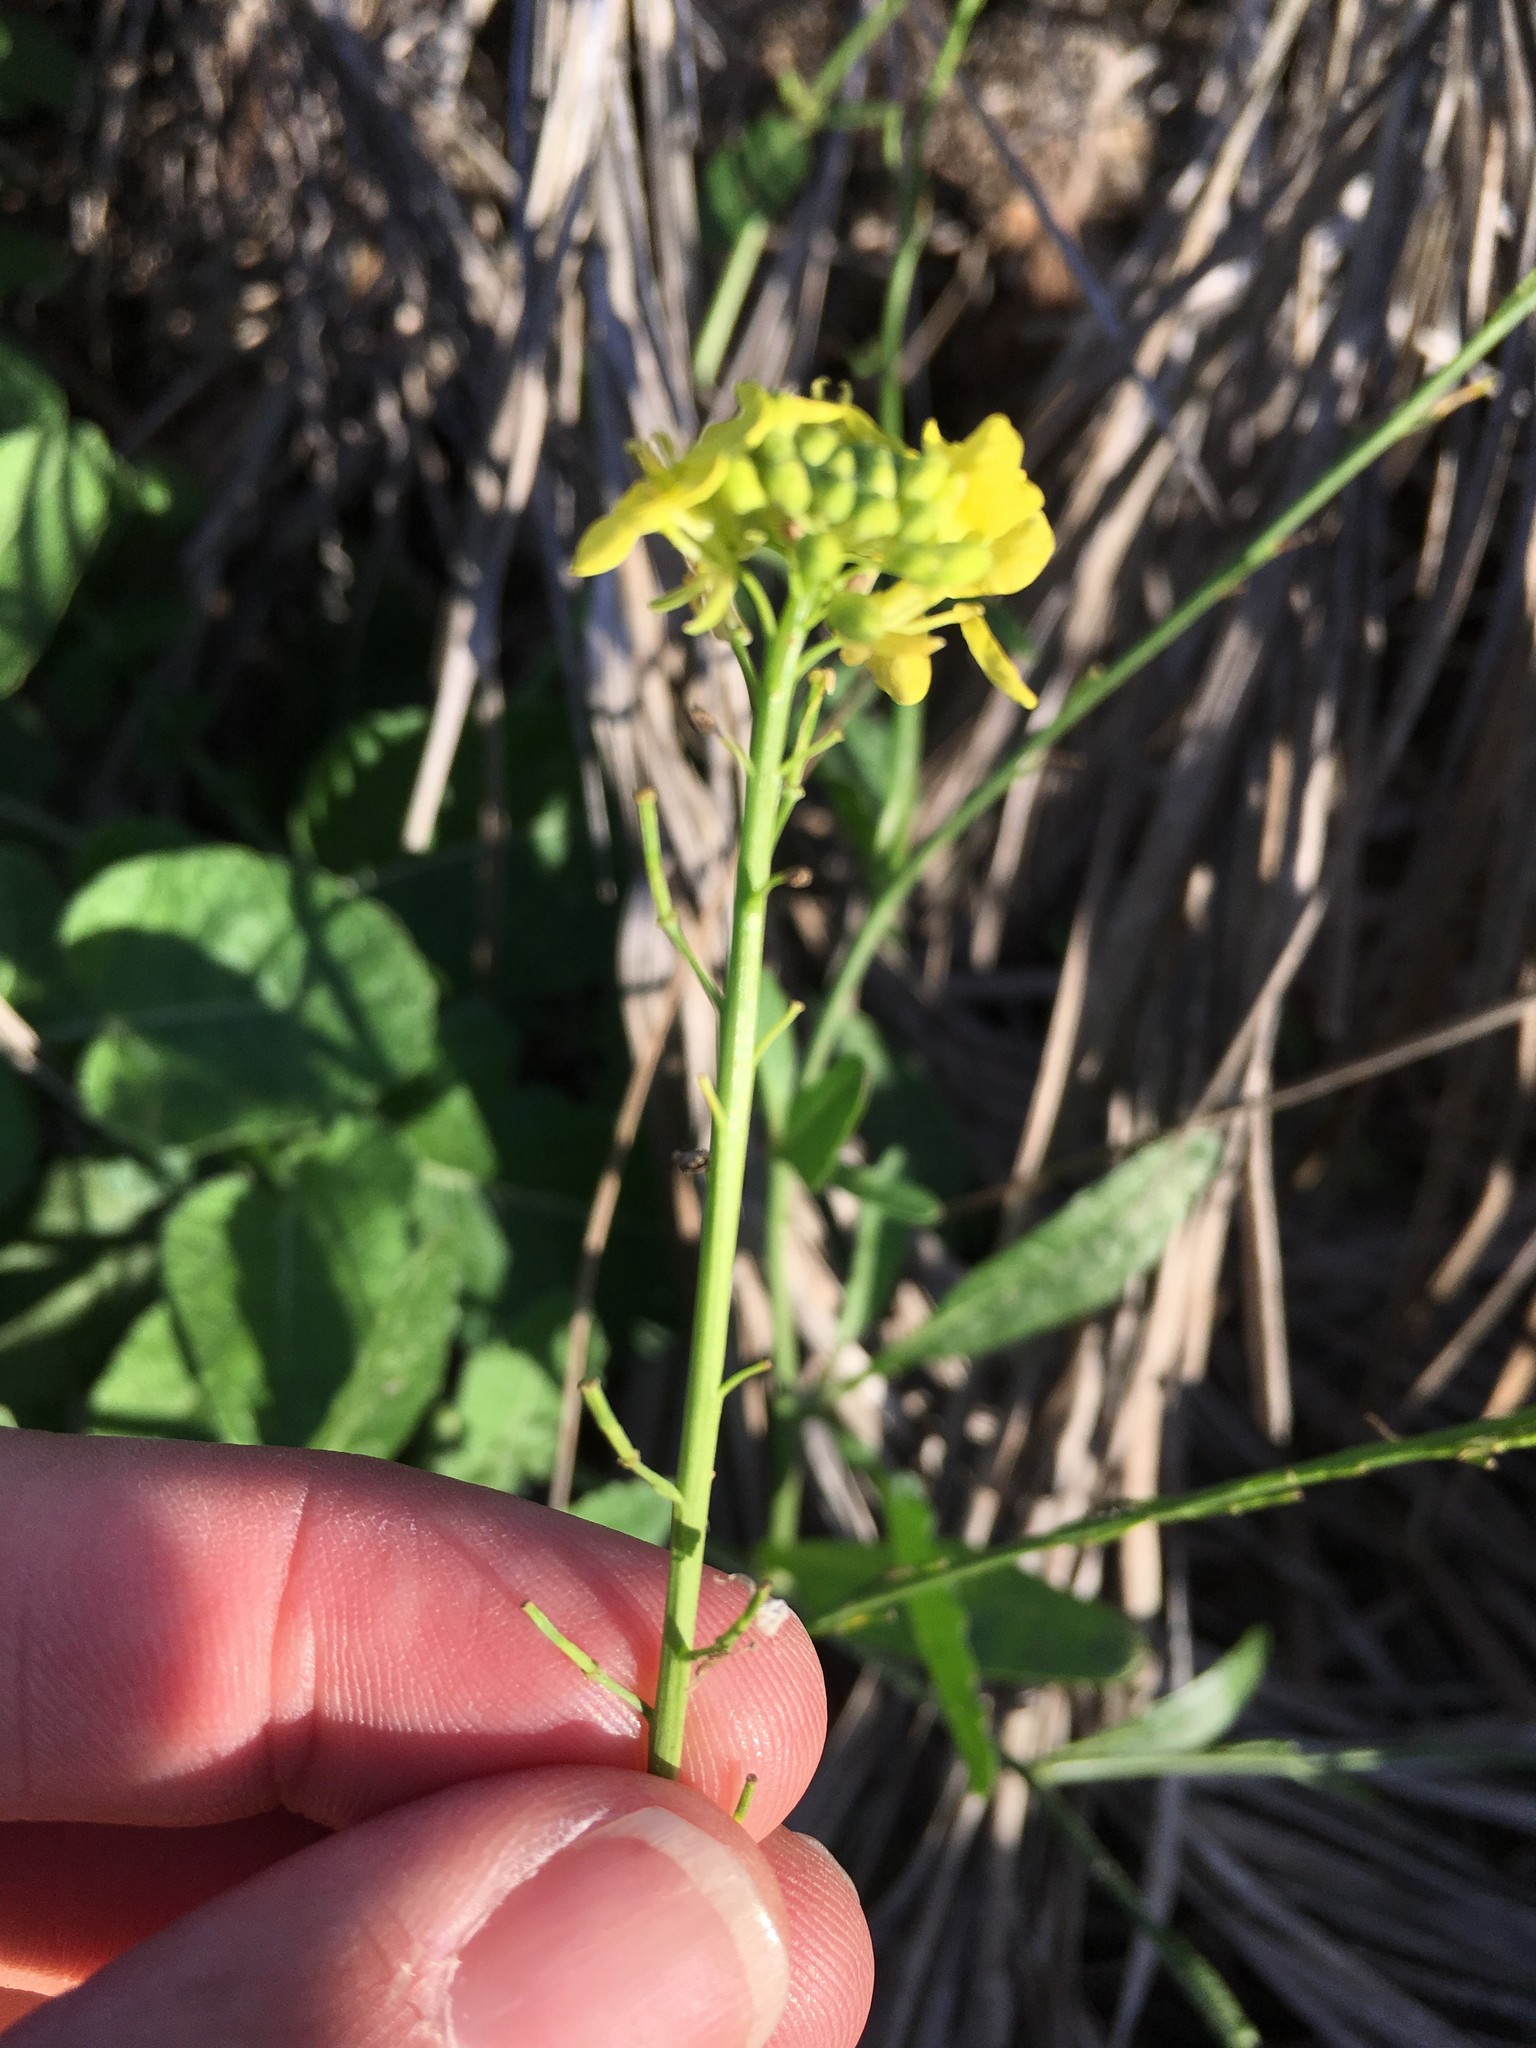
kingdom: Plantae
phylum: Tracheophyta
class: Magnoliopsida
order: Brassicales
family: Brassicaceae
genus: Hirschfeldia
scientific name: Hirschfeldia incana
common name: Hoary mustard
